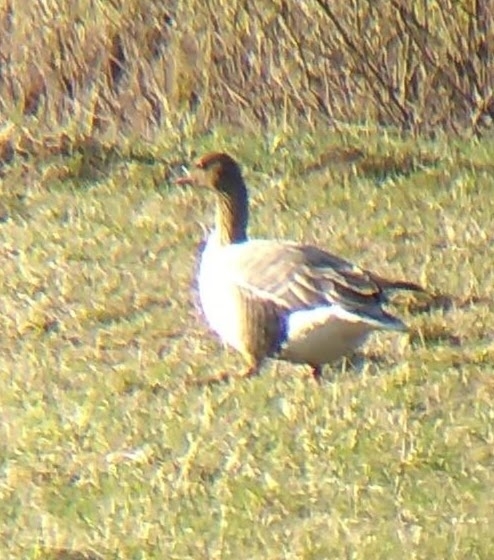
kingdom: Animalia
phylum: Chordata
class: Aves
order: Anseriformes
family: Anatidae
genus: Anser
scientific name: Anser brachyrhynchus
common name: Pink-footed goose
